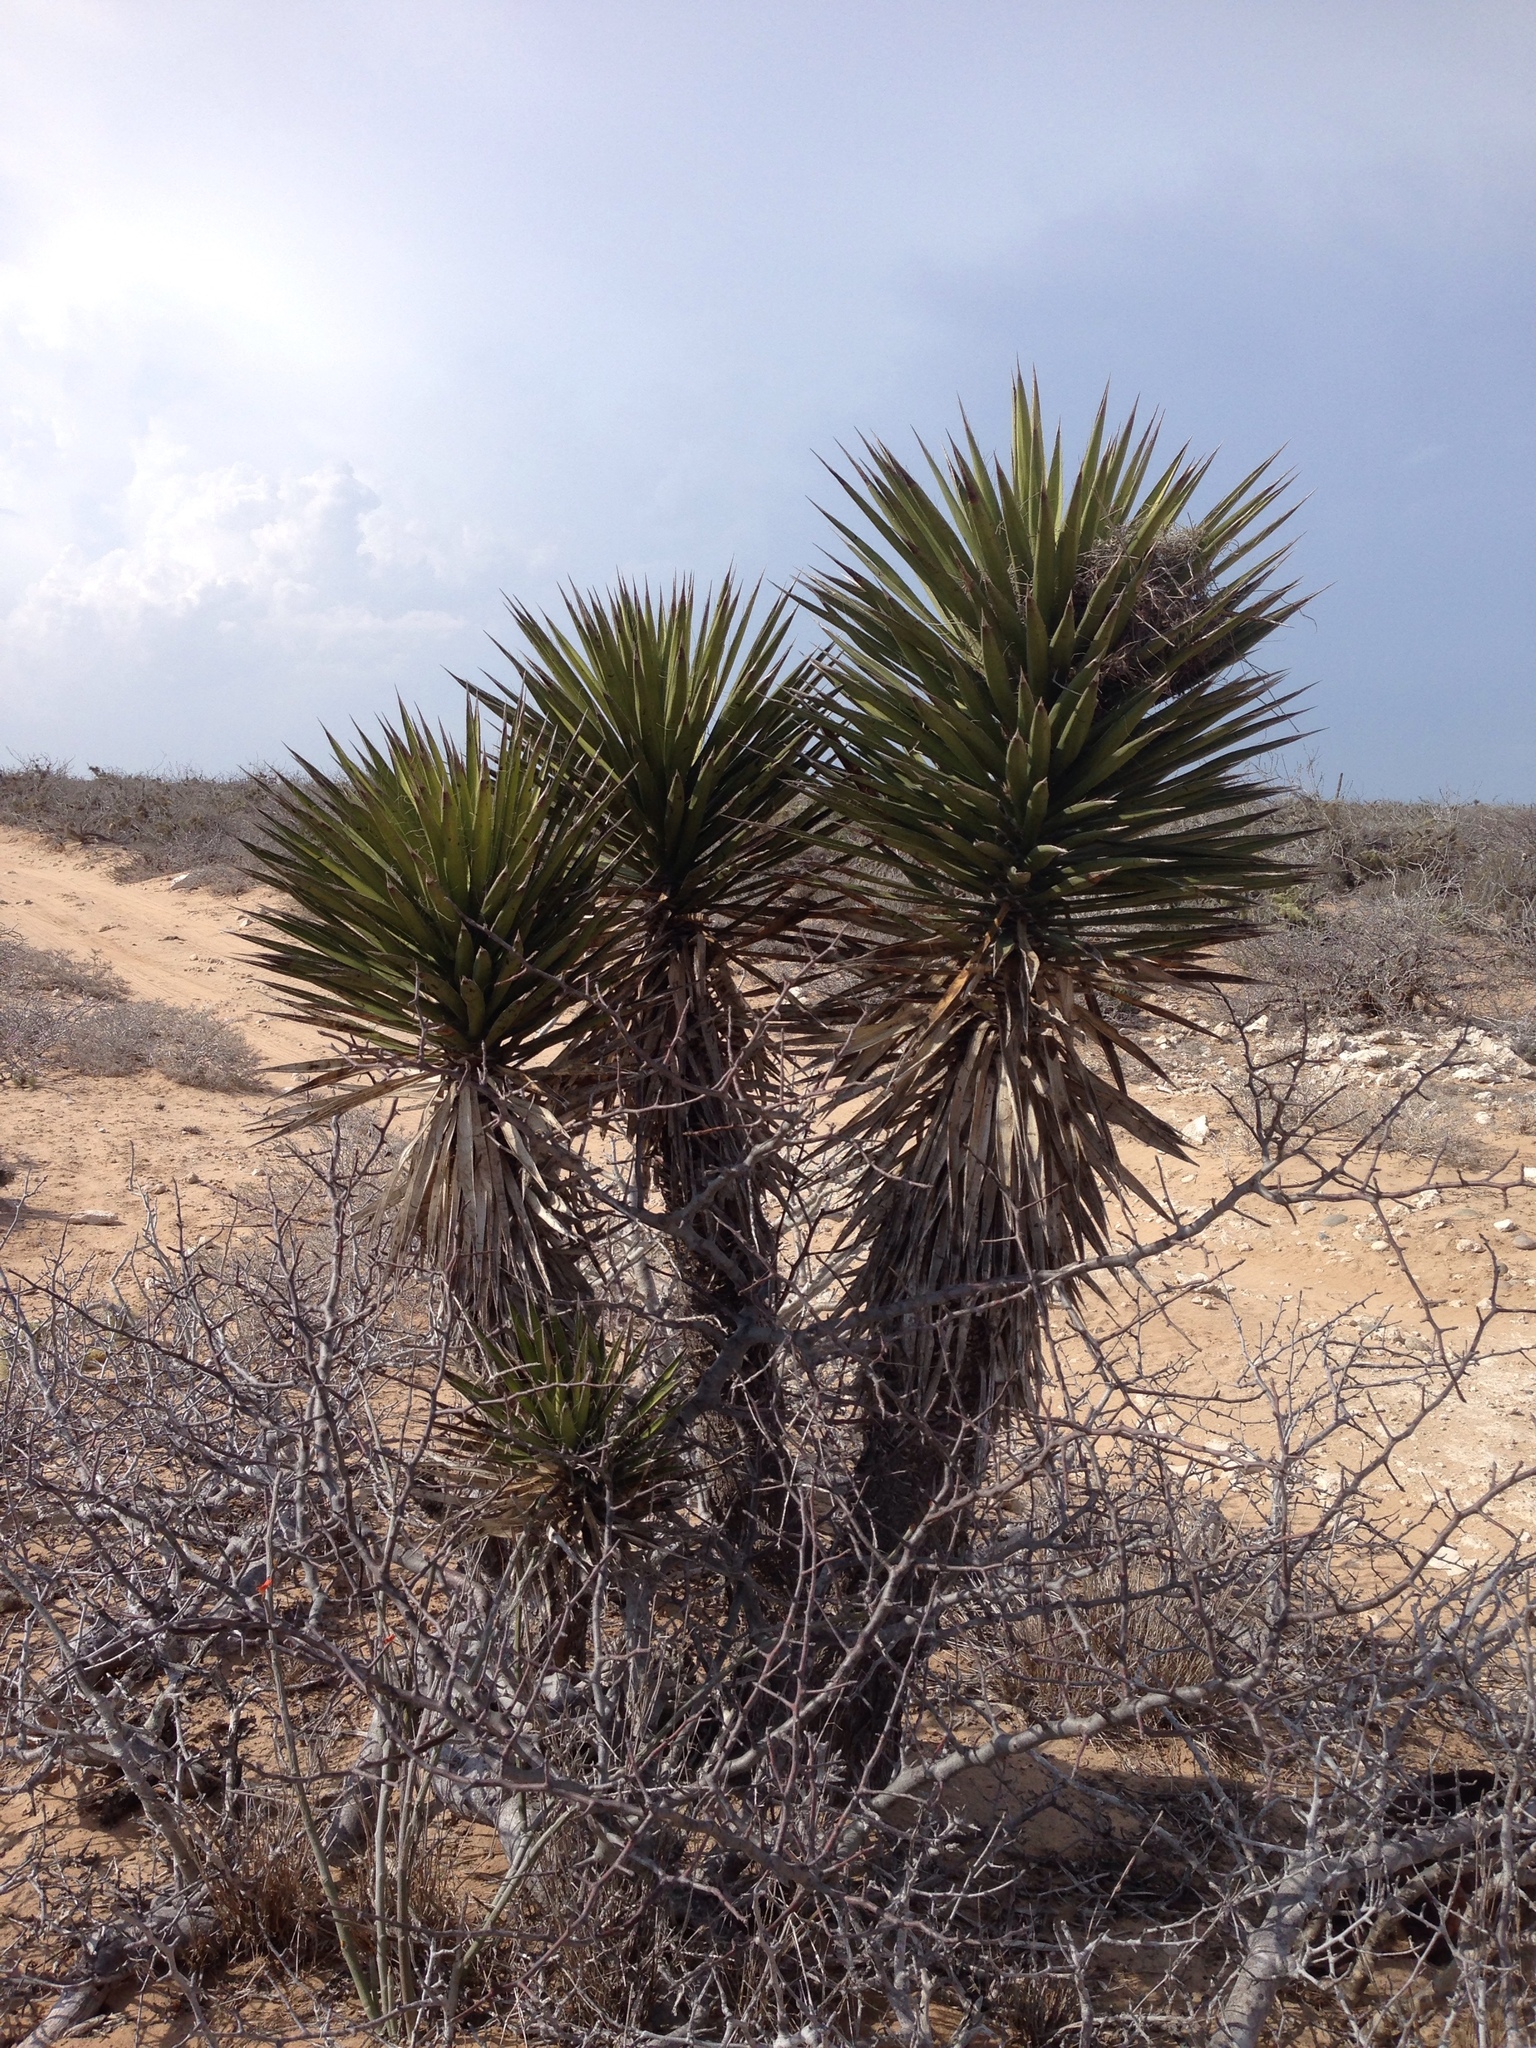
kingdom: Plantae
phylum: Tracheophyta
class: Liliopsida
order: Asparagales
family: Asparagaceae
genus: Yucca
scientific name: Yucca valida
